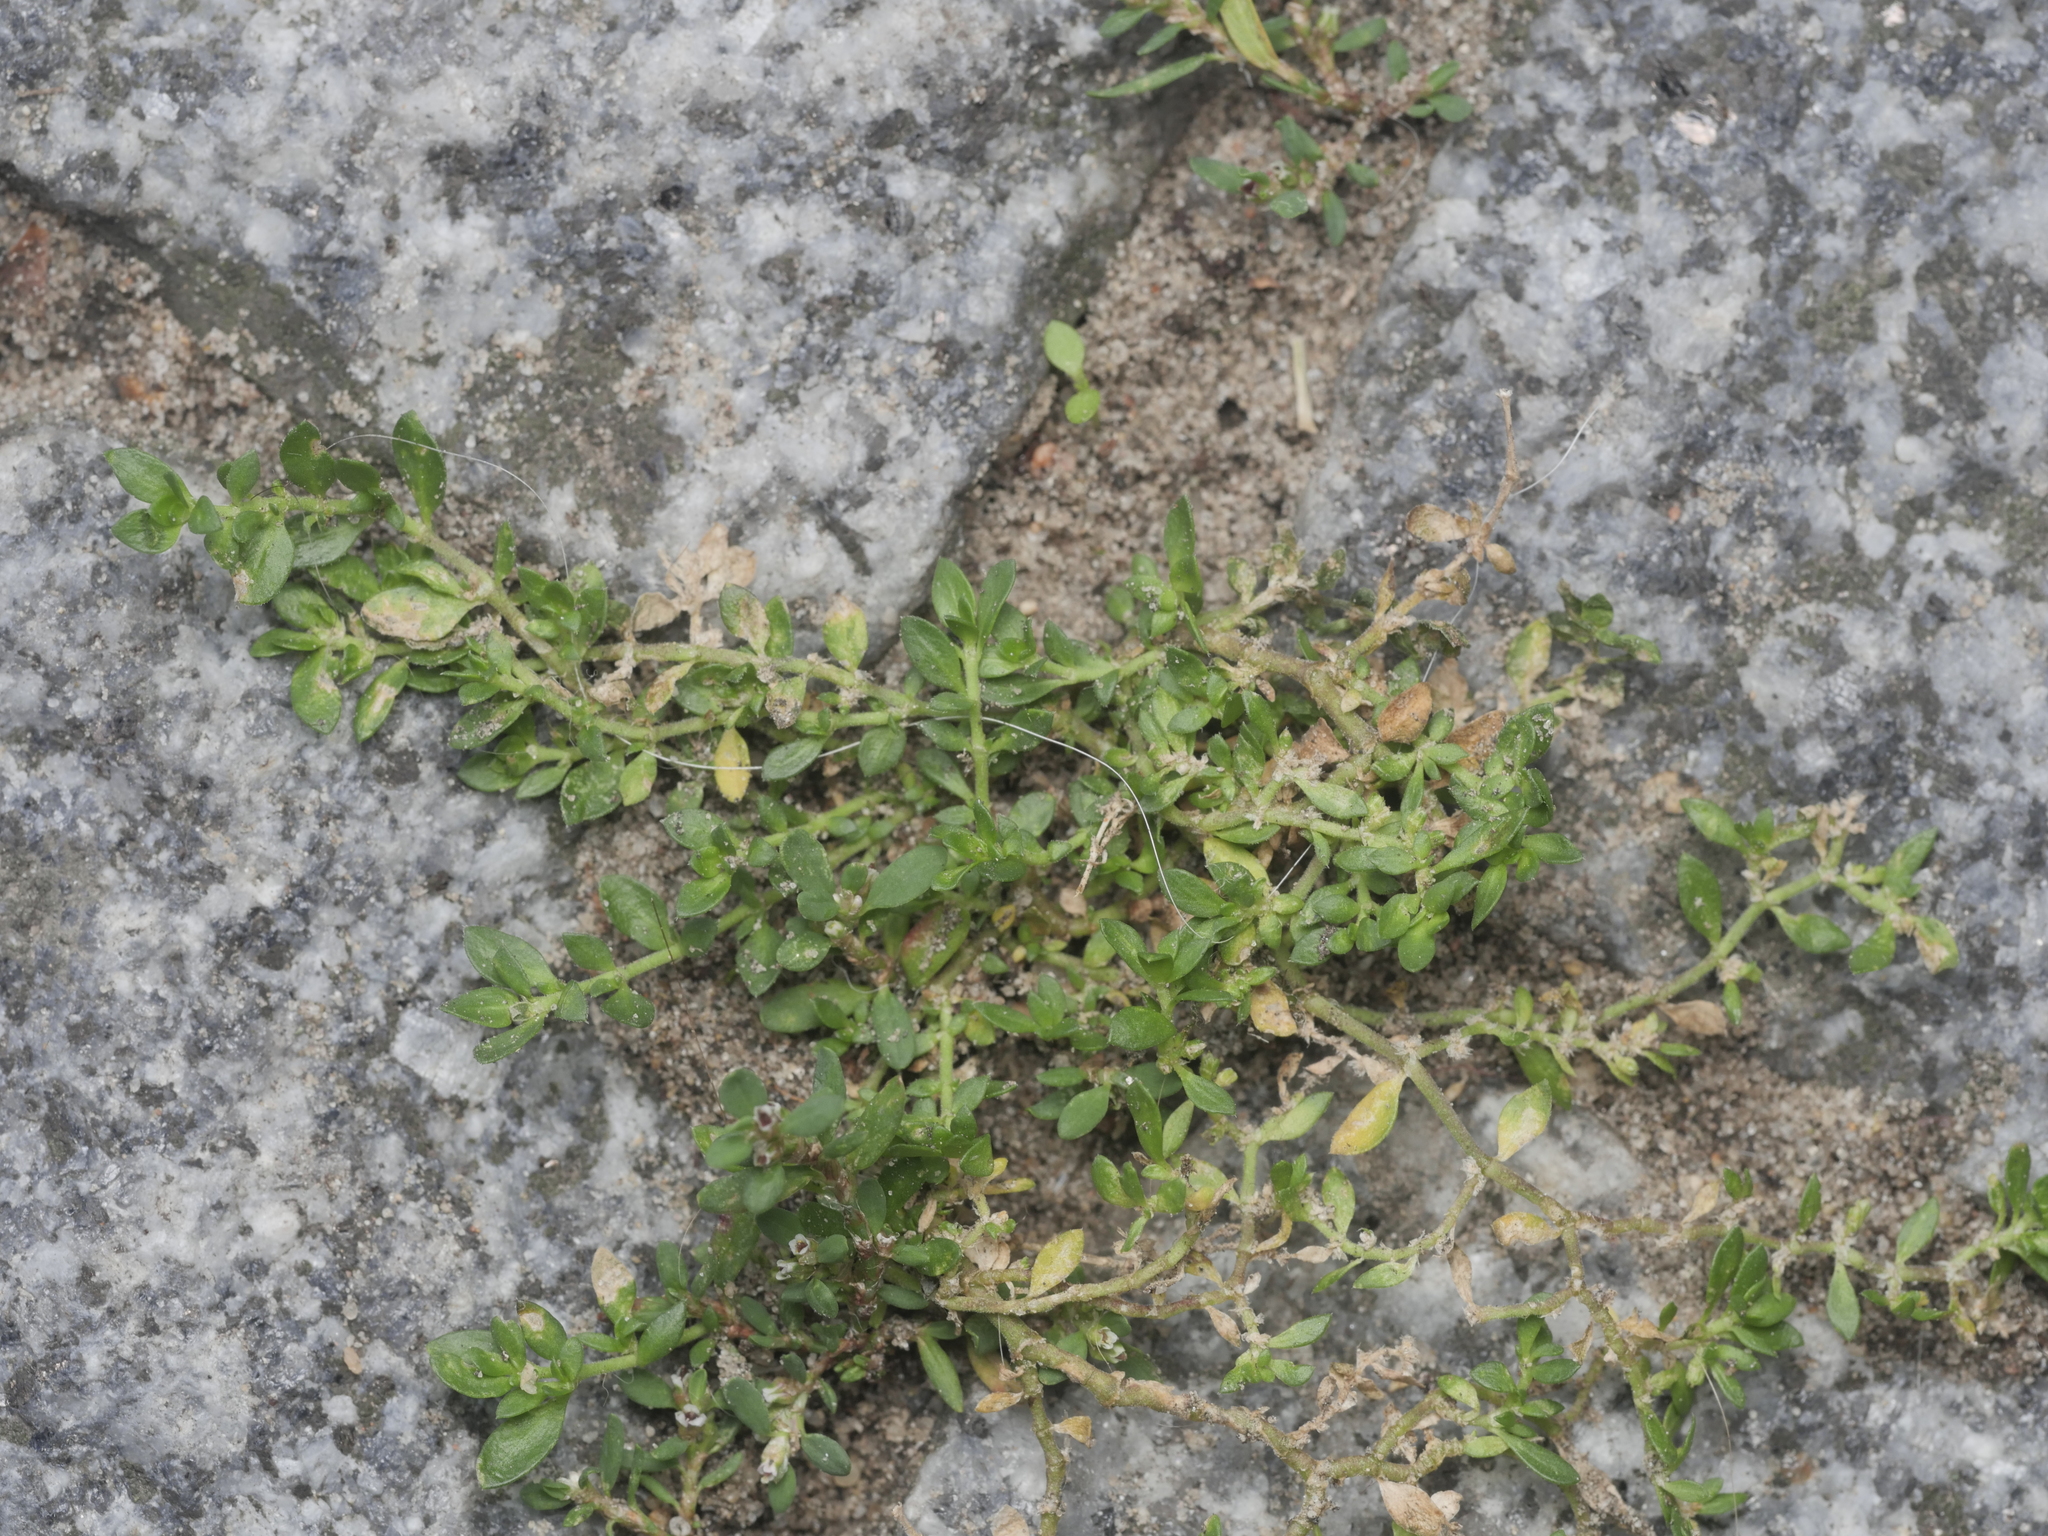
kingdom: Plantae
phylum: Tracheophyta
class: Magnoliopsida
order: Caryophyllales
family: Caryophyllaceae
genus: Herniaria
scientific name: Herniaria glabra
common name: Smooth rupturewort
